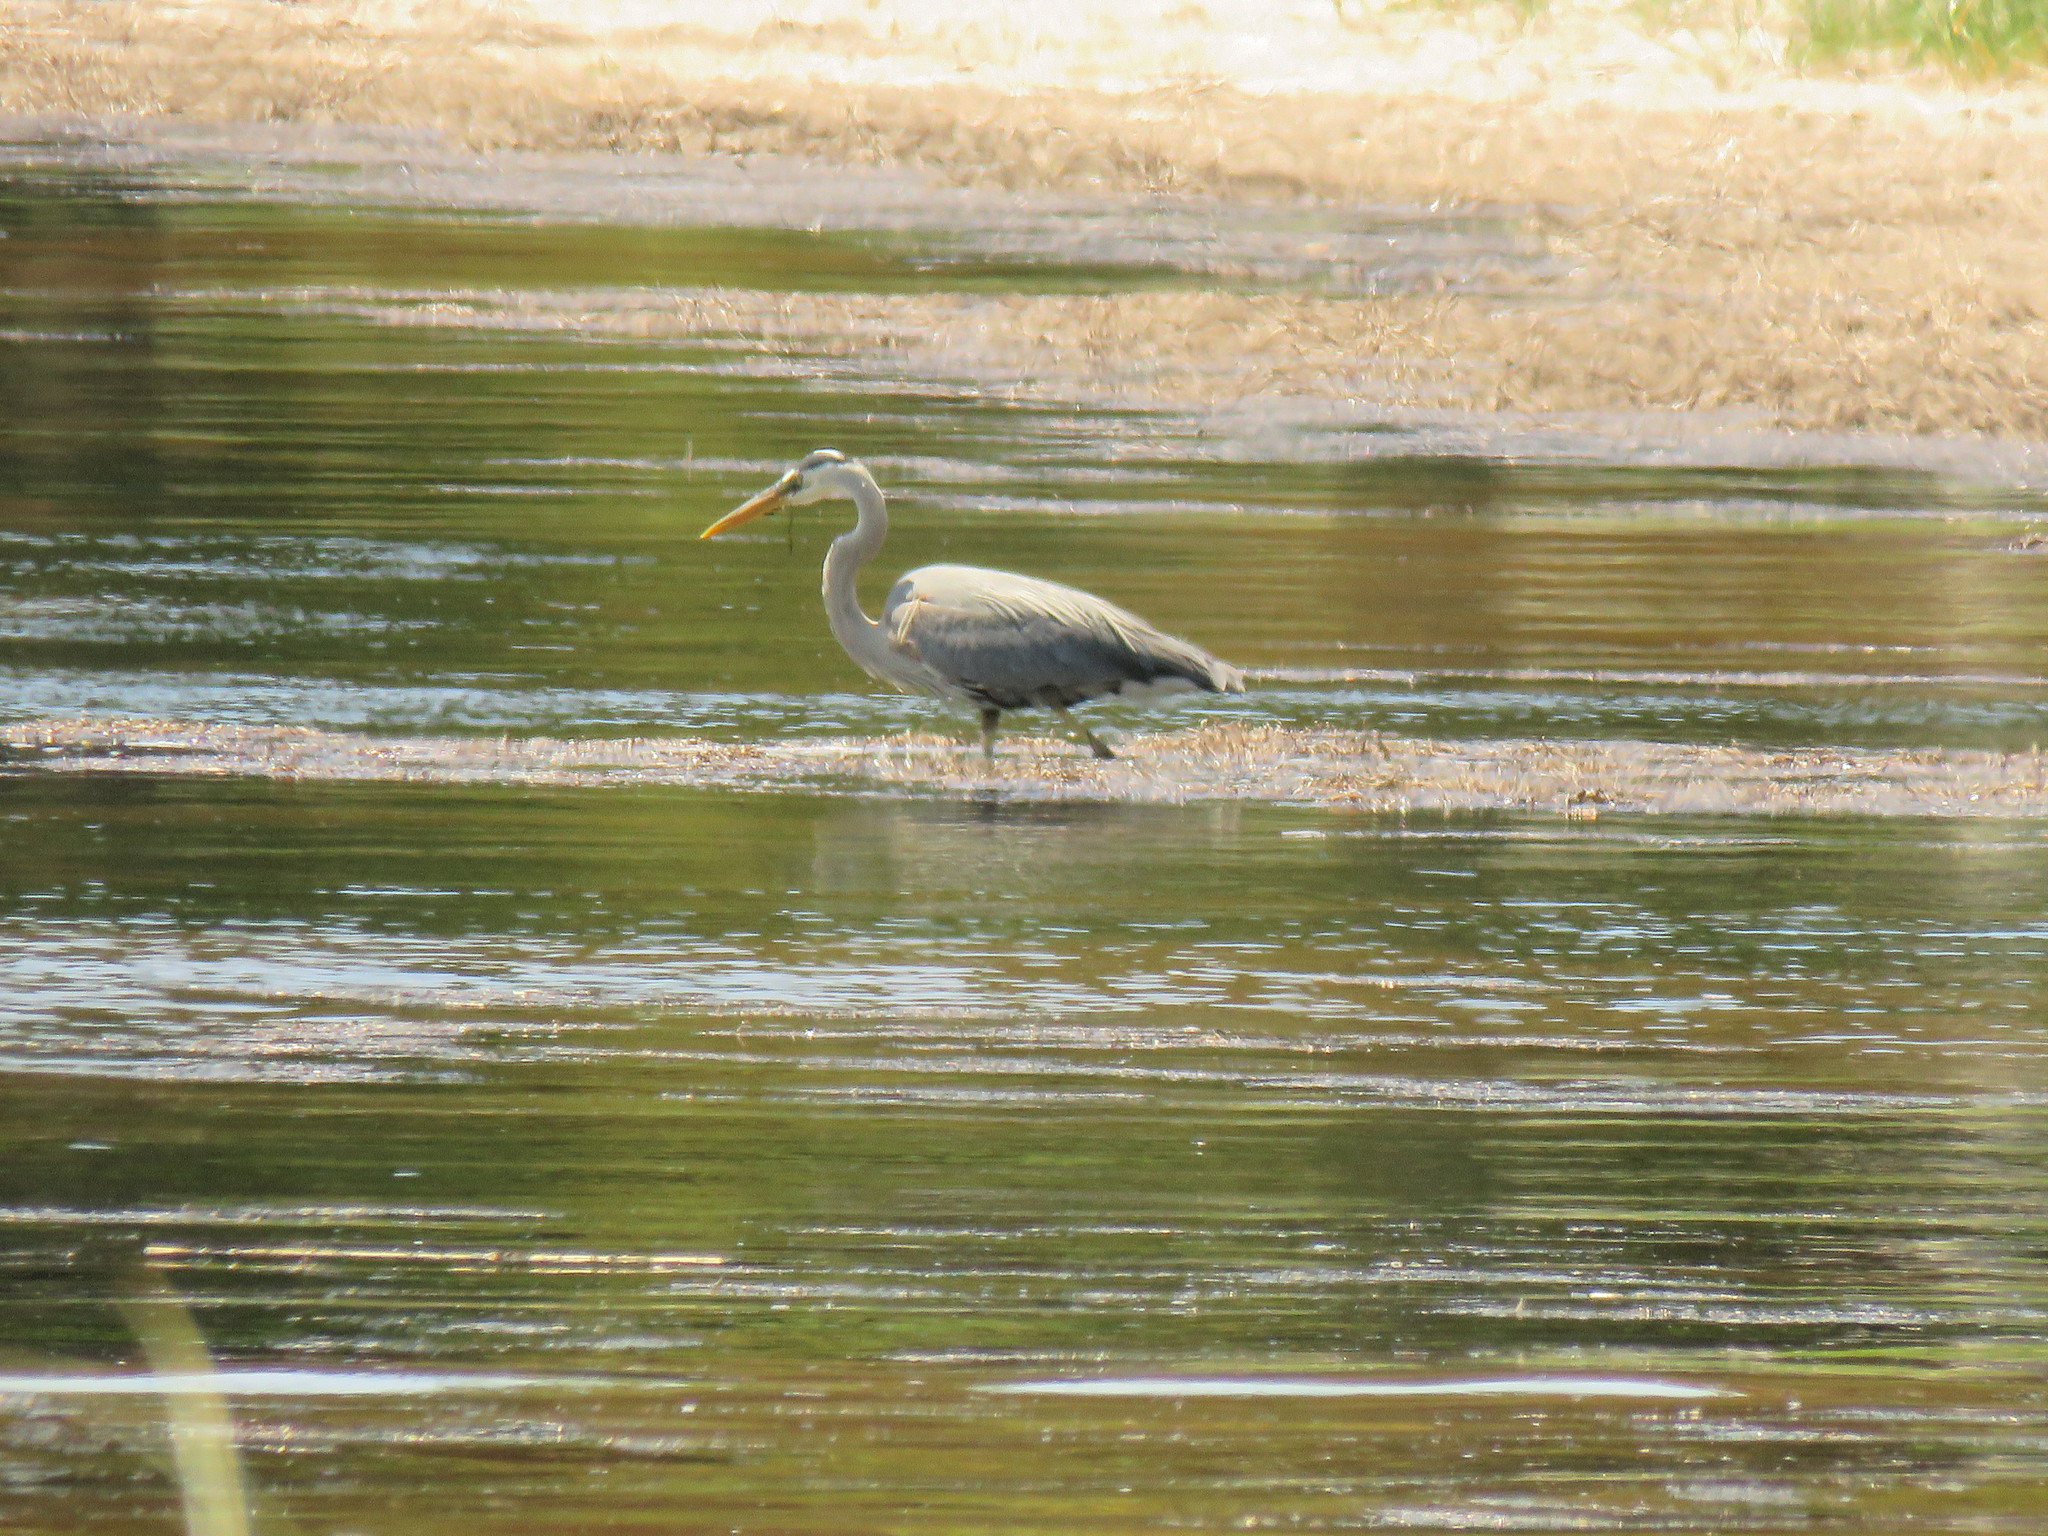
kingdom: Animalia
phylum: Chordata
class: Aves
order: Pelecaniformes
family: Ardeidae
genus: Ardea
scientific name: Ardea herodias
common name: Great blue heron
